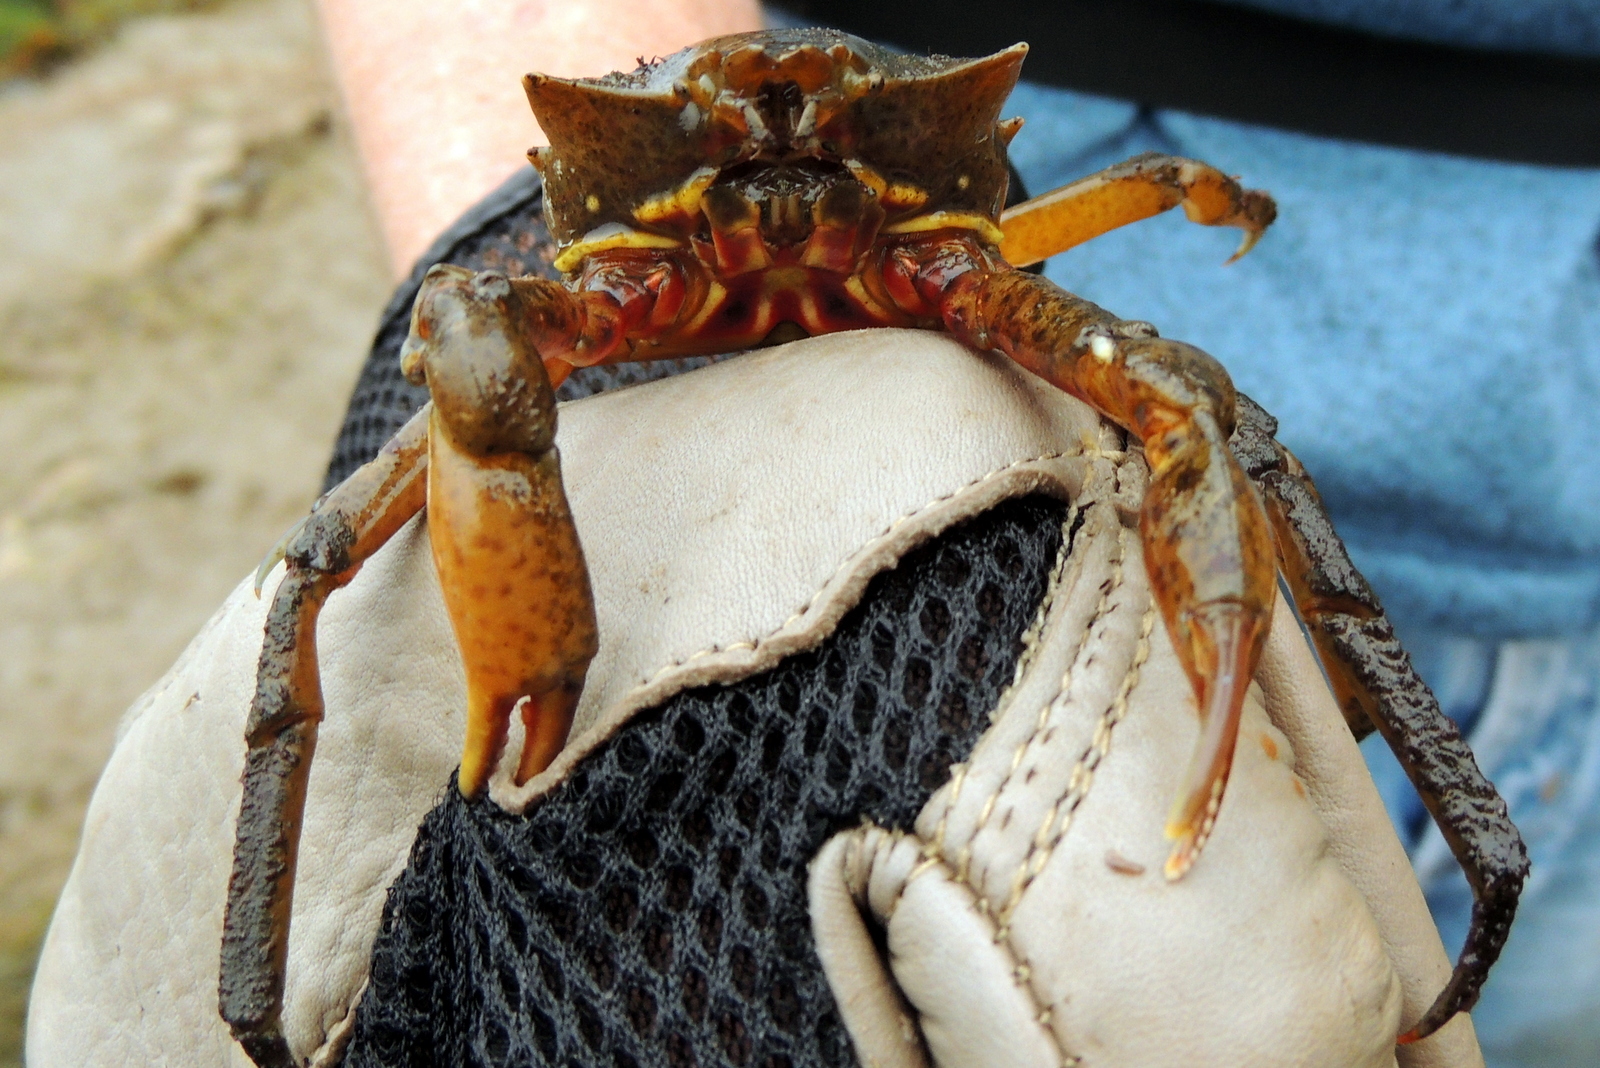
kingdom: Animalia
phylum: Arthropoda
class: Malacostraca
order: Decapoda
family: Epialtidae
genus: Pugettia
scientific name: Pugettia producta
